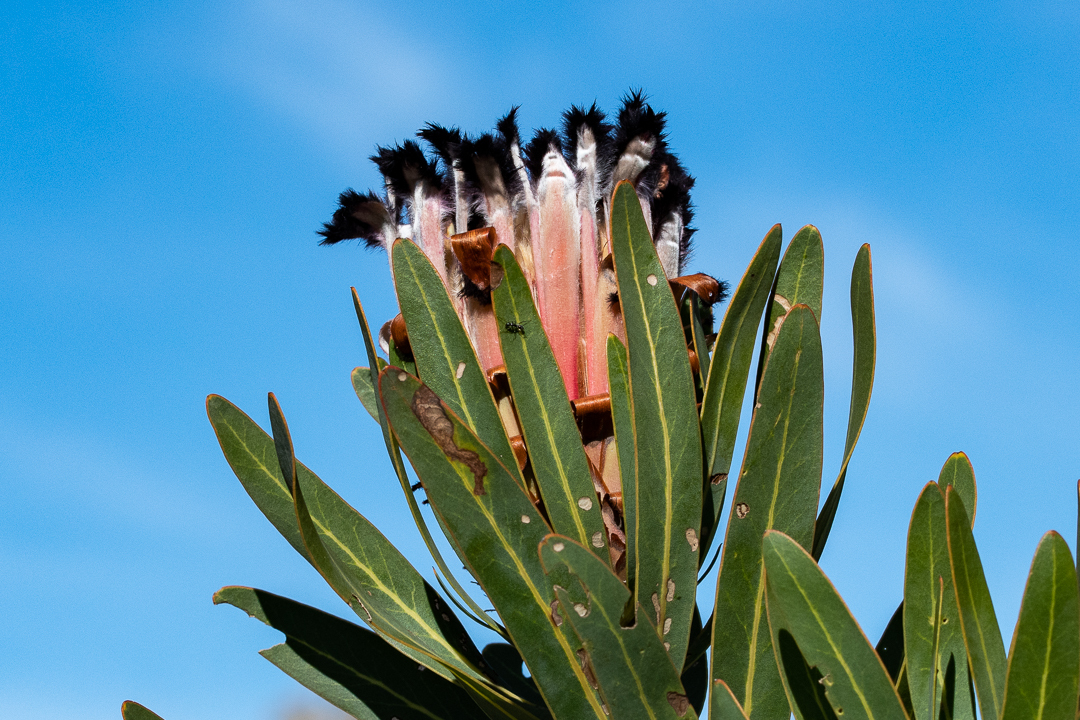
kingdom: Plantae
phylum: Tracheophyta
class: Magnoliopsida
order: Proteales
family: Proteaceae
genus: Protea
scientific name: Protea neriifolia
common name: Blue sugarbush
